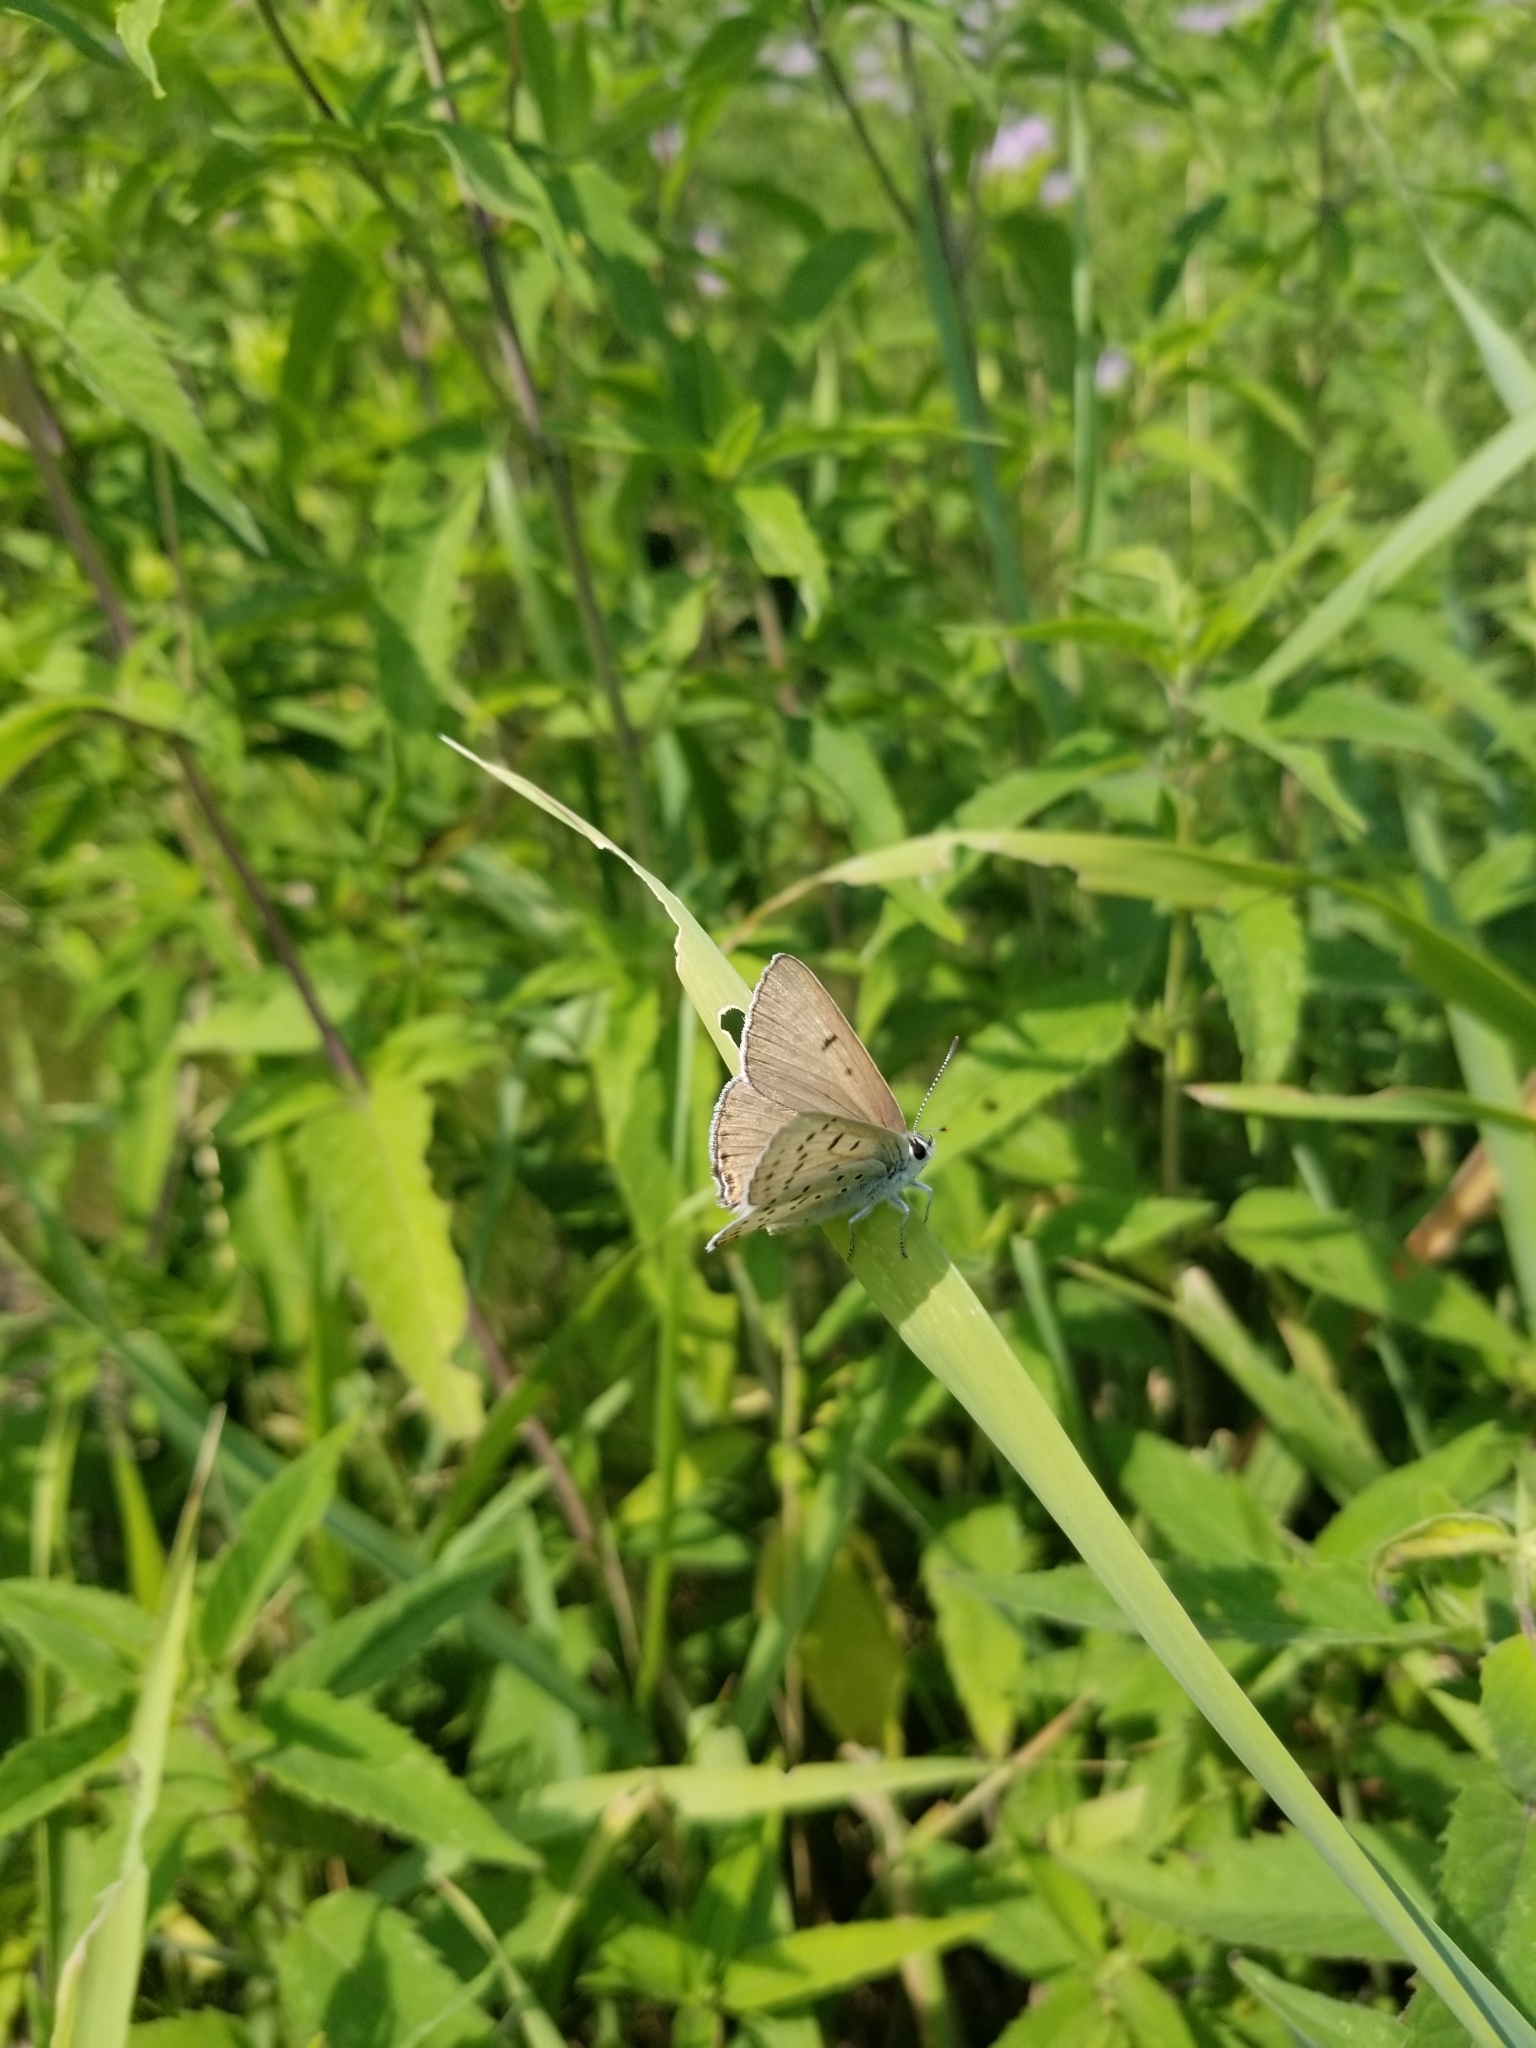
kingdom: Animalia
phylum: Arthropoda
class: Insecta
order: Lepidoptera
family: Lycaenidae
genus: Tharsalea
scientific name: Tharsalea dione
